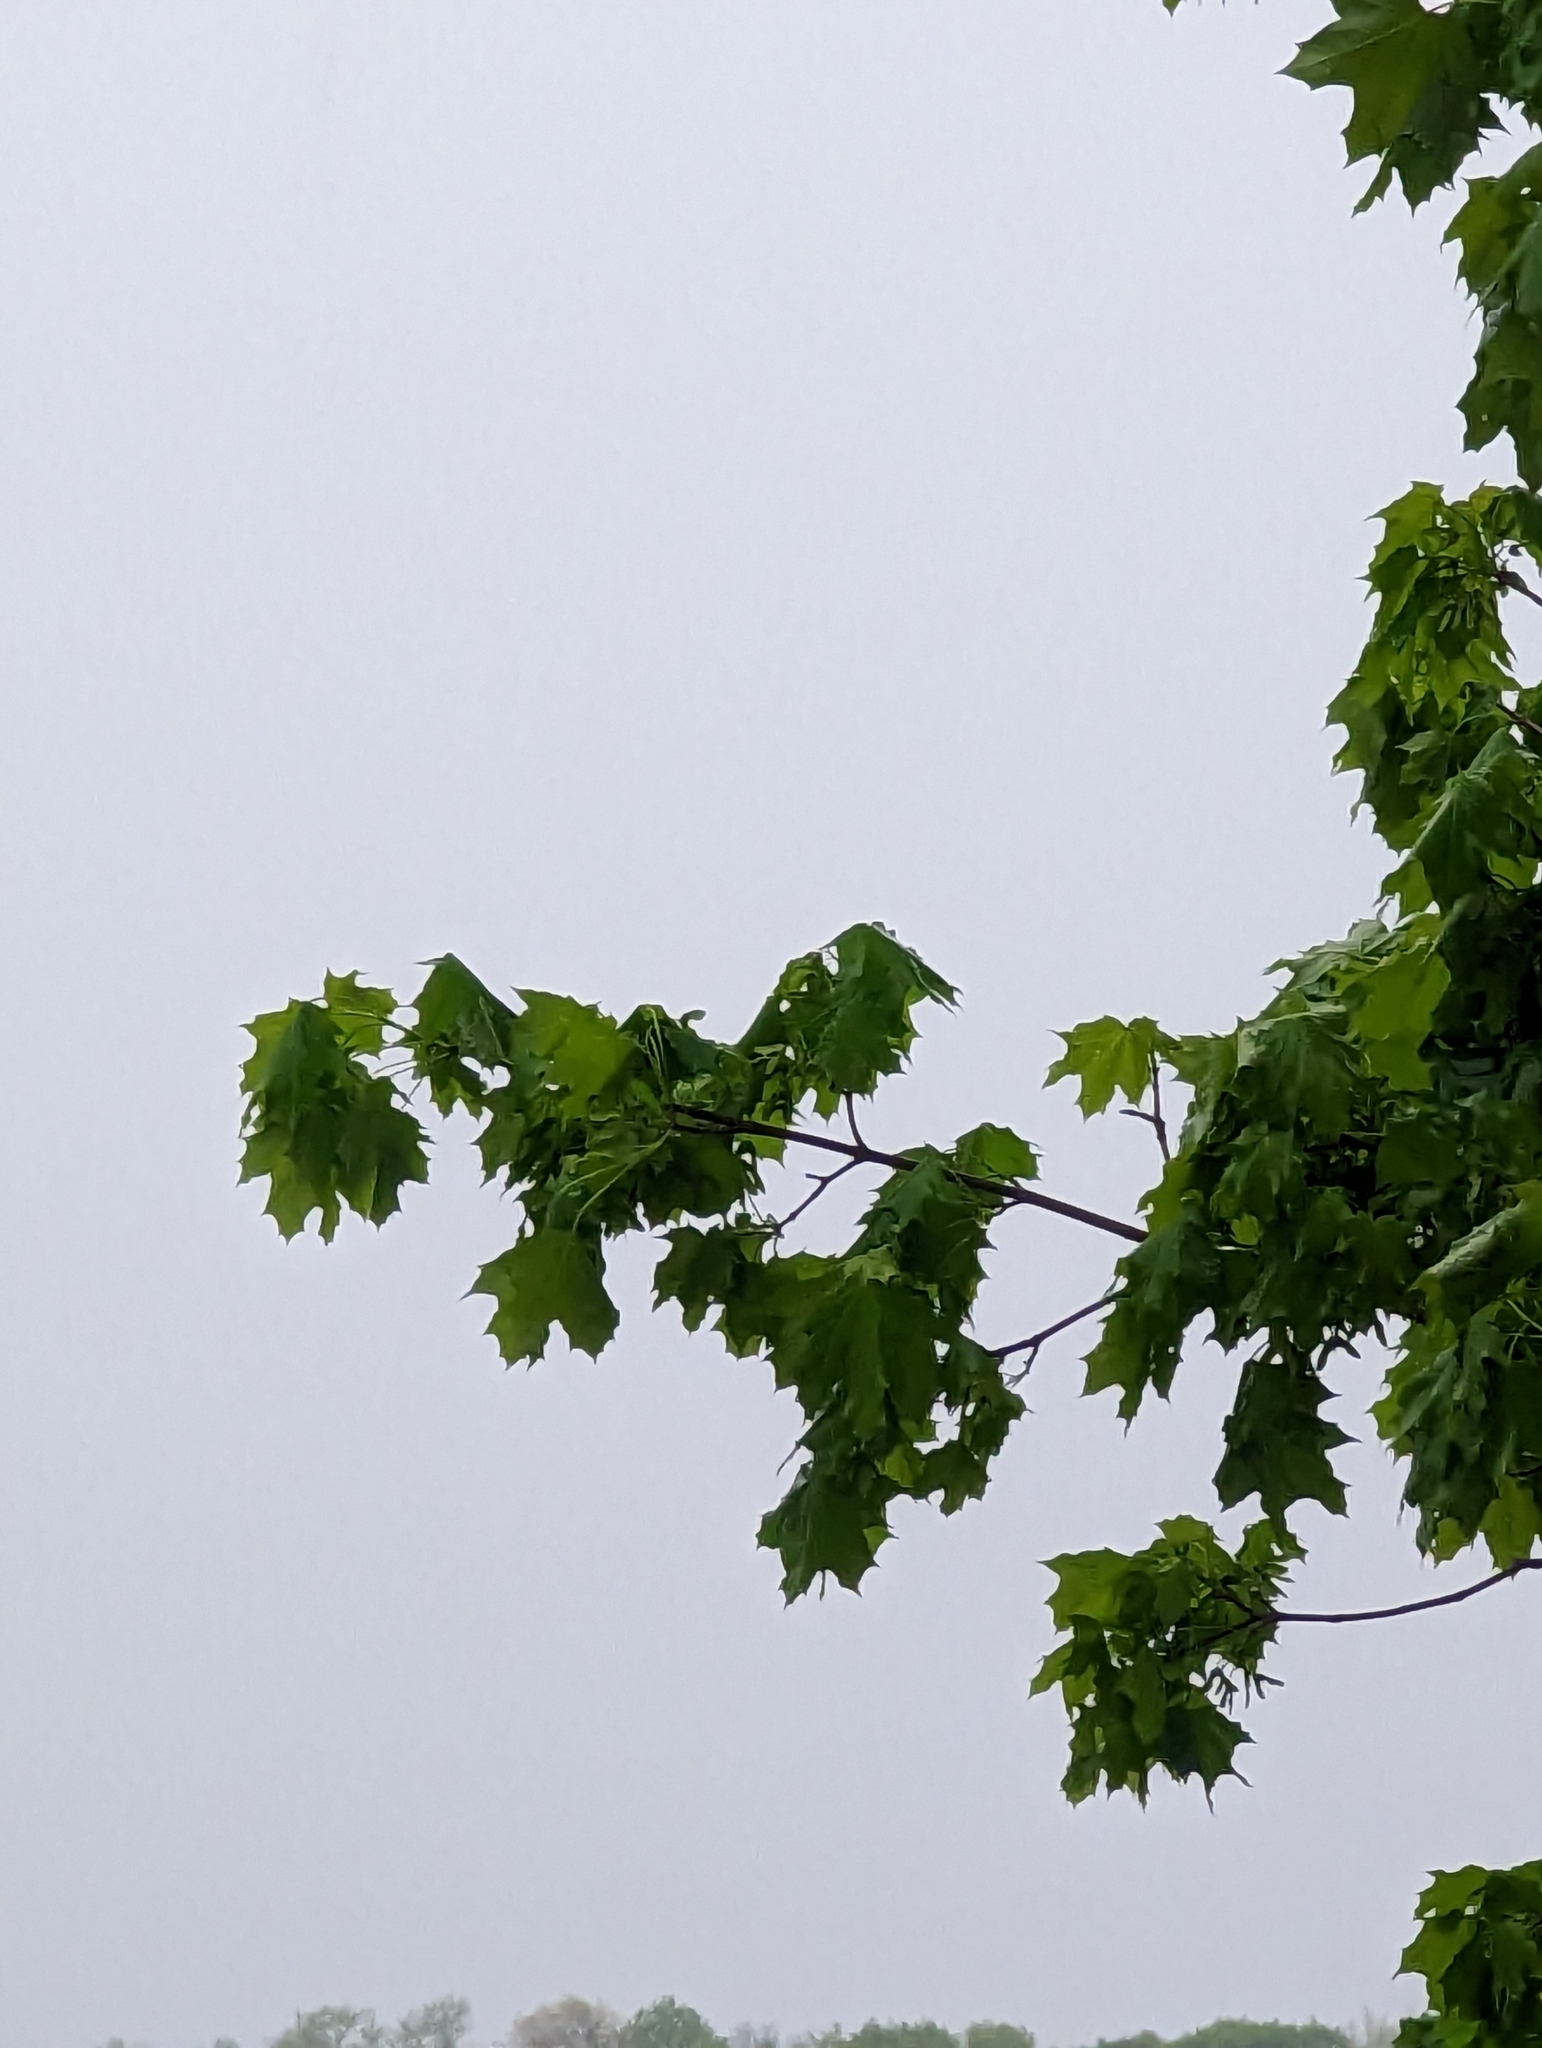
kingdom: Plantae
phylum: Tracheophyta
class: Magnoliopsida
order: Sapindales
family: Sapindaceae
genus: Acer
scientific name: Acer platanoides
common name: Norway maple
